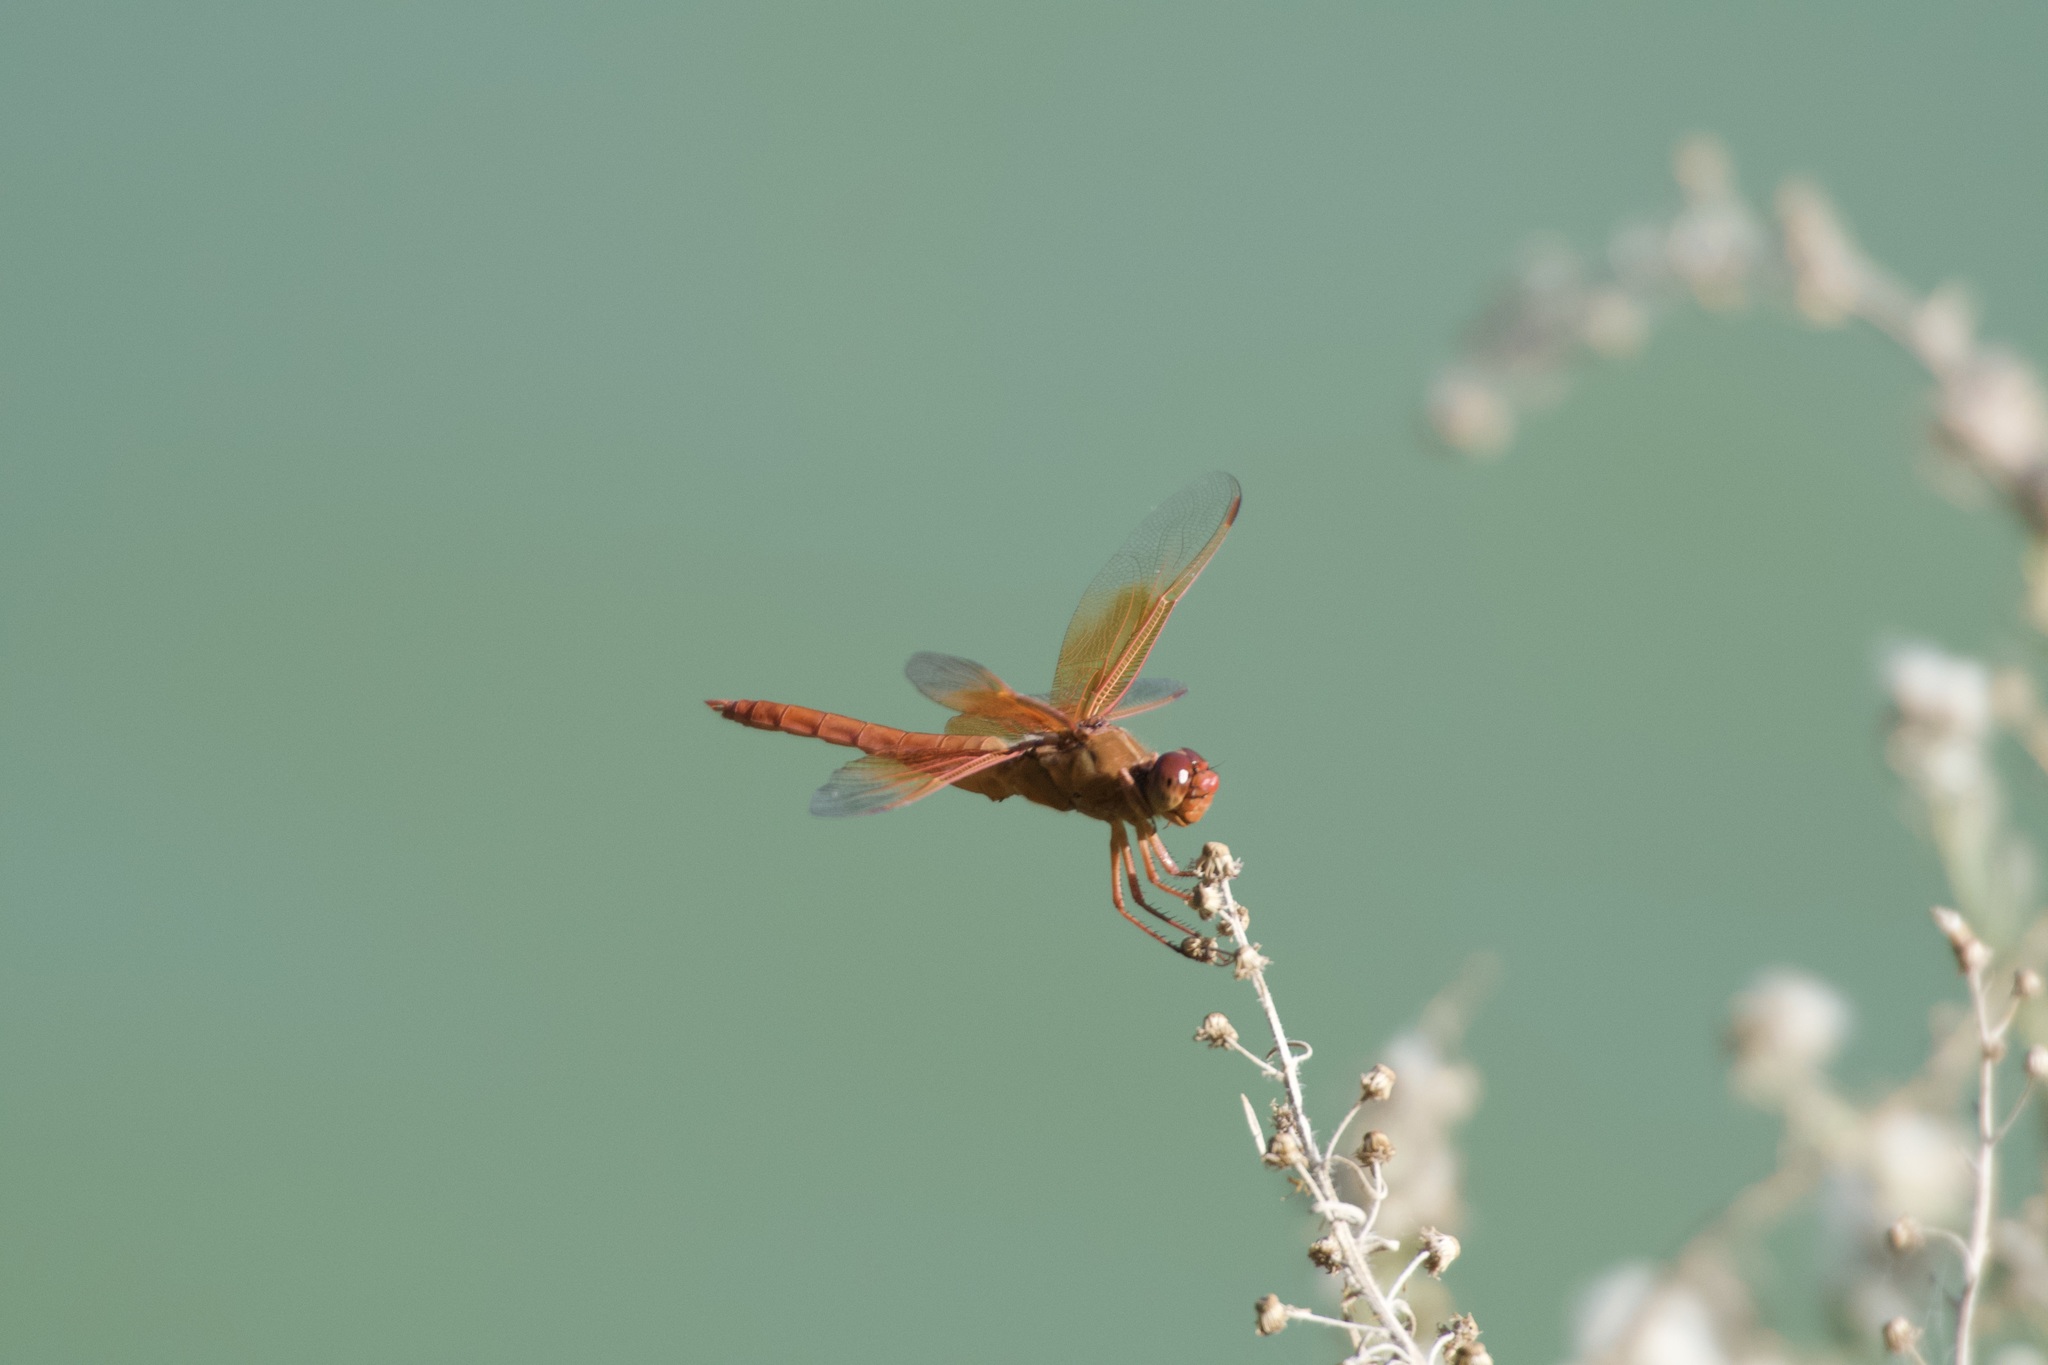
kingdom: Animalia
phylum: Arthropoda
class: Insecta
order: Odonata
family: Libellulidae
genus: Libellula
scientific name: Libellula saturata
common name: Flame skimmer
